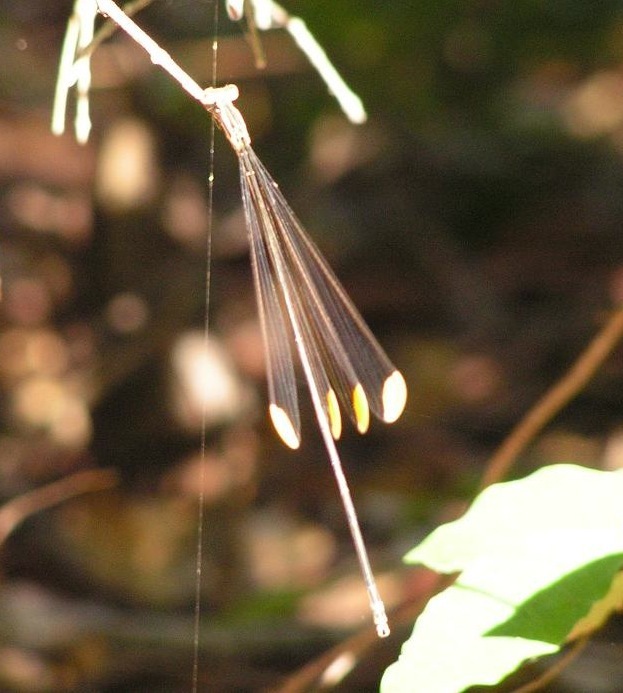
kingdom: Animalia
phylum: Arthropoda
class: Insecta
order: Odonata
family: Coenagrionidae
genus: Mecistogaster
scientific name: Mecistogaster ornata
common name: Ornate helicopter
